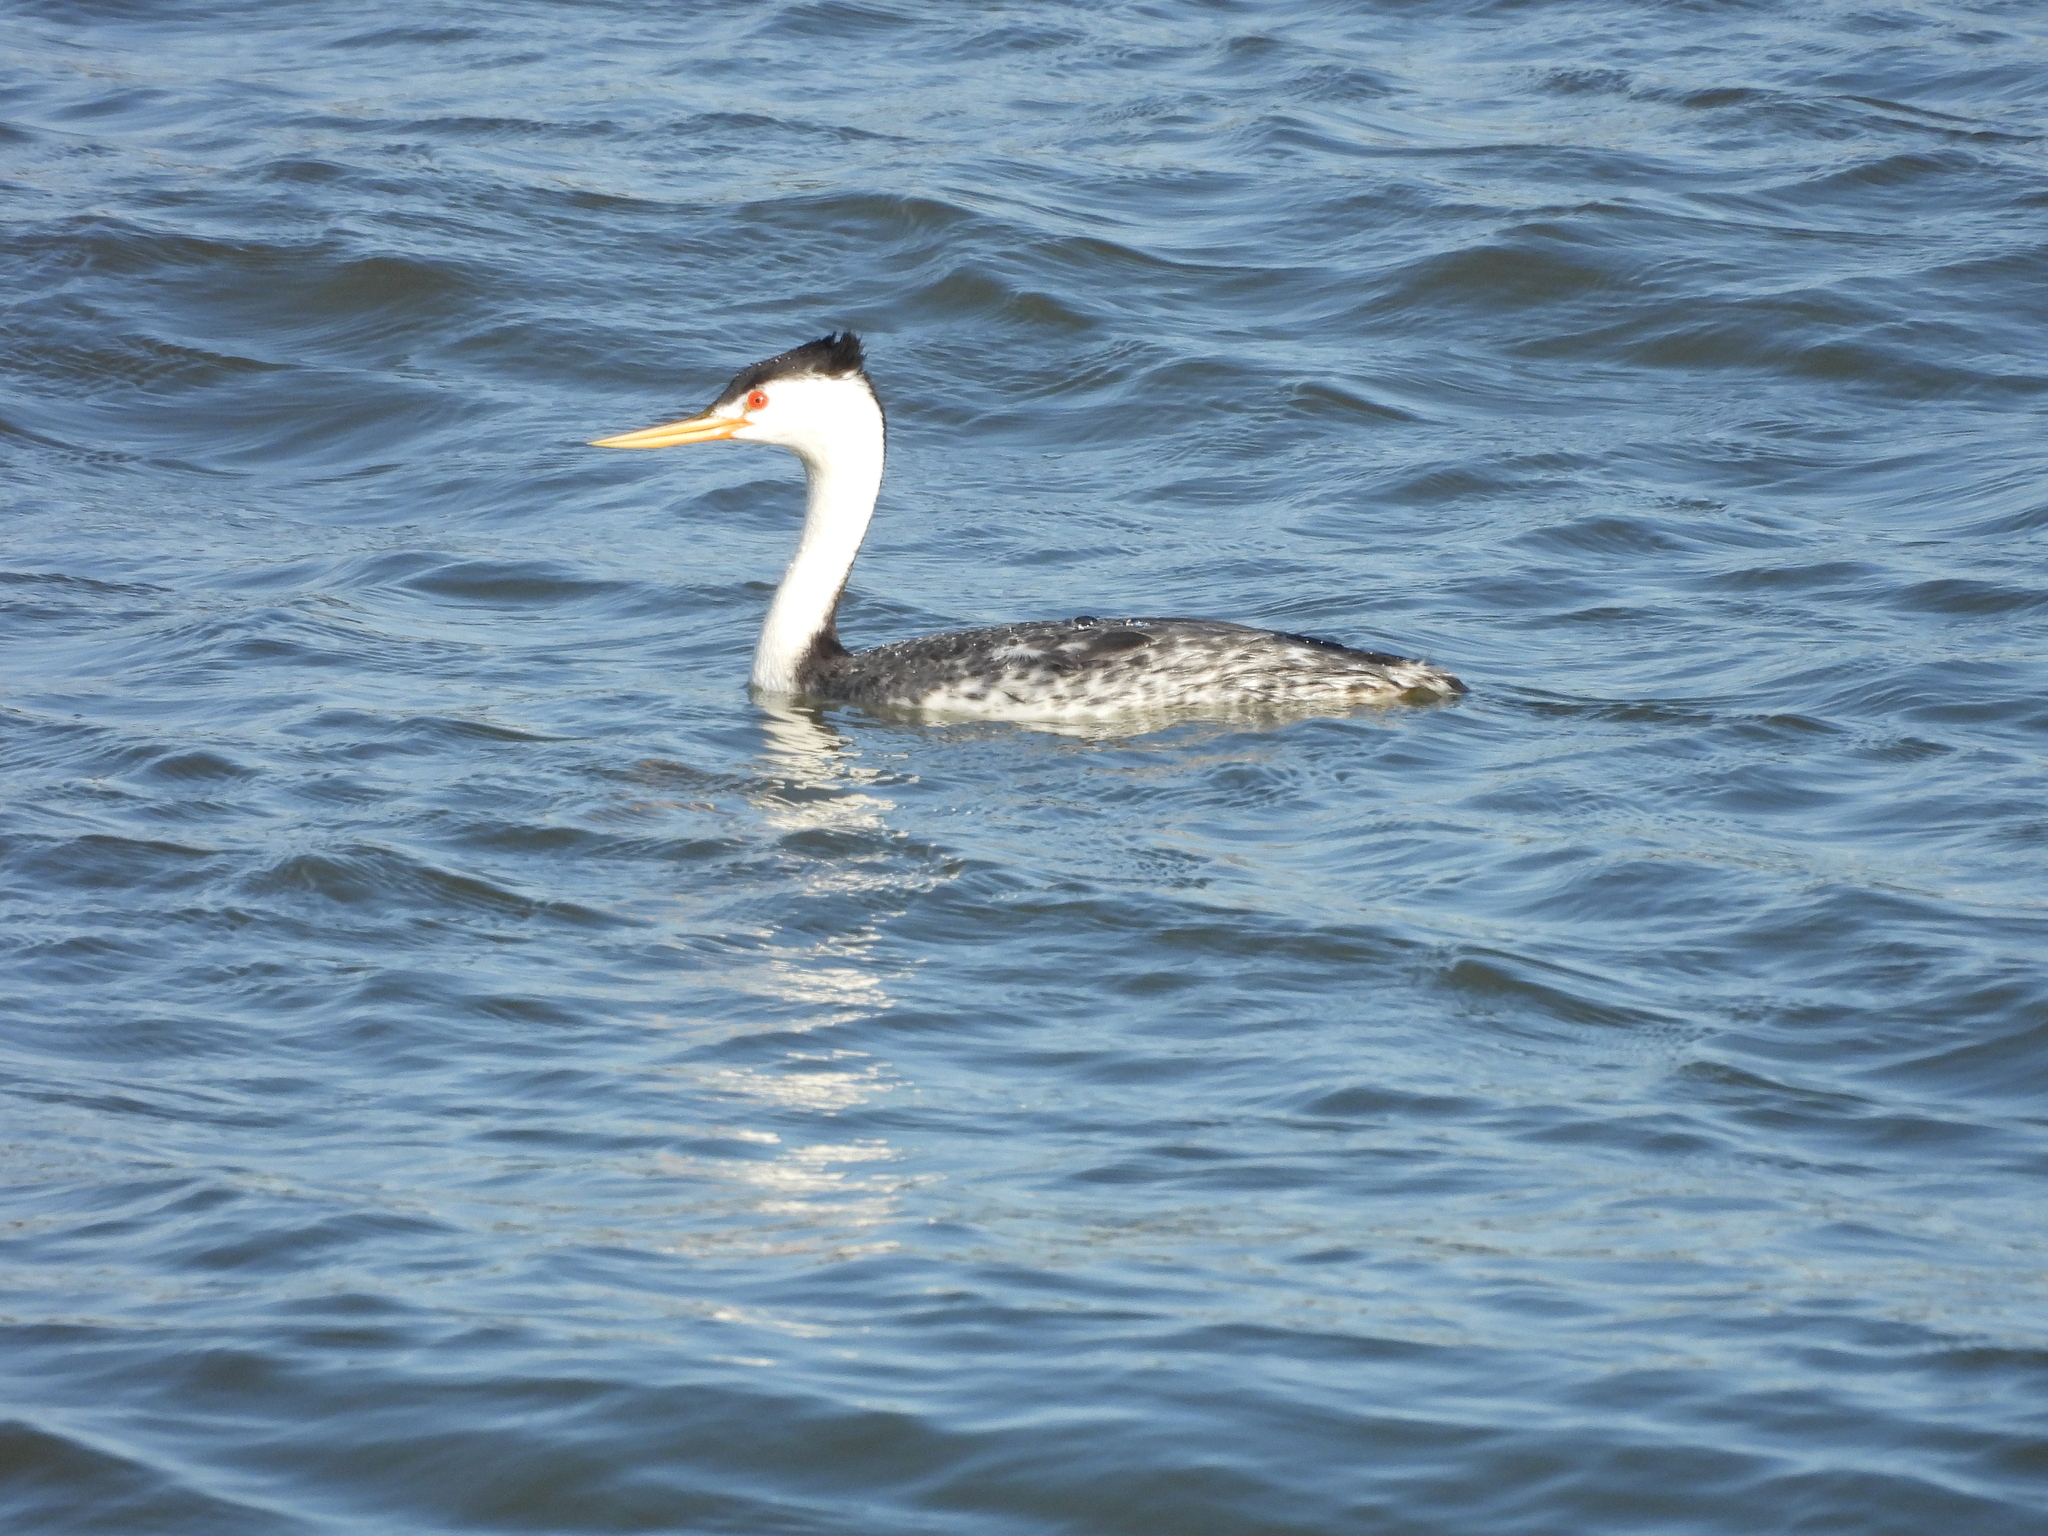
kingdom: Animalia
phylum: Chordata
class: Aves
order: Podicipediformes
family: Podicipedidae
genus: Aechmophorus
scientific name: Aechmophorus clarkii
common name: Clark's grebe
